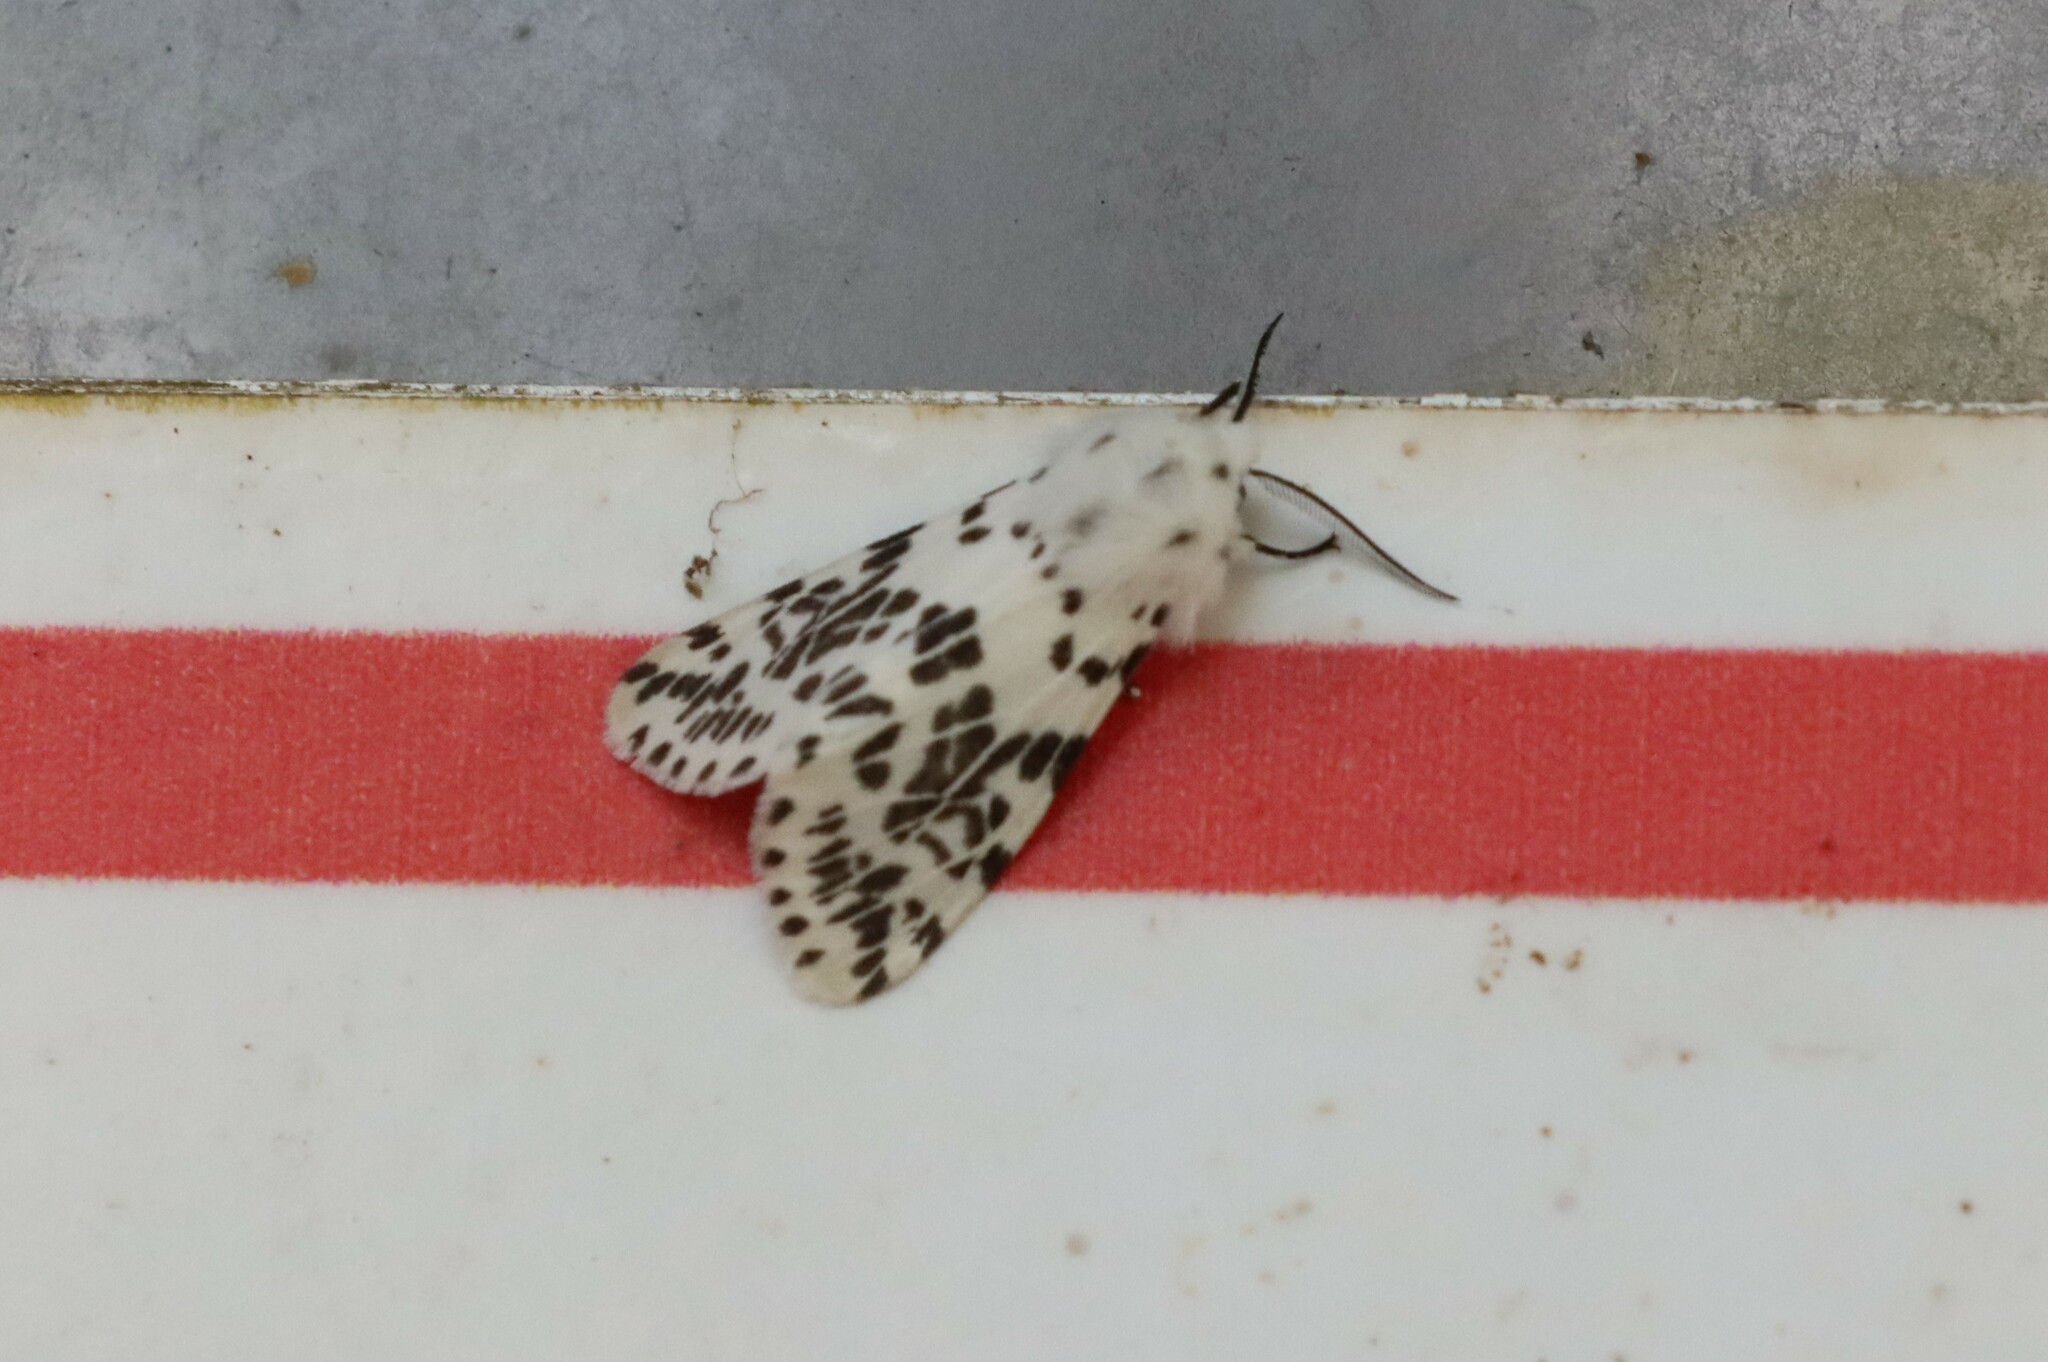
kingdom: Animalia
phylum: Arthropoda
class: Insecta
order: Lepidoptera
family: Erebidae
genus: Hyphantria
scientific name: Hyphantria cunea
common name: American white moth
